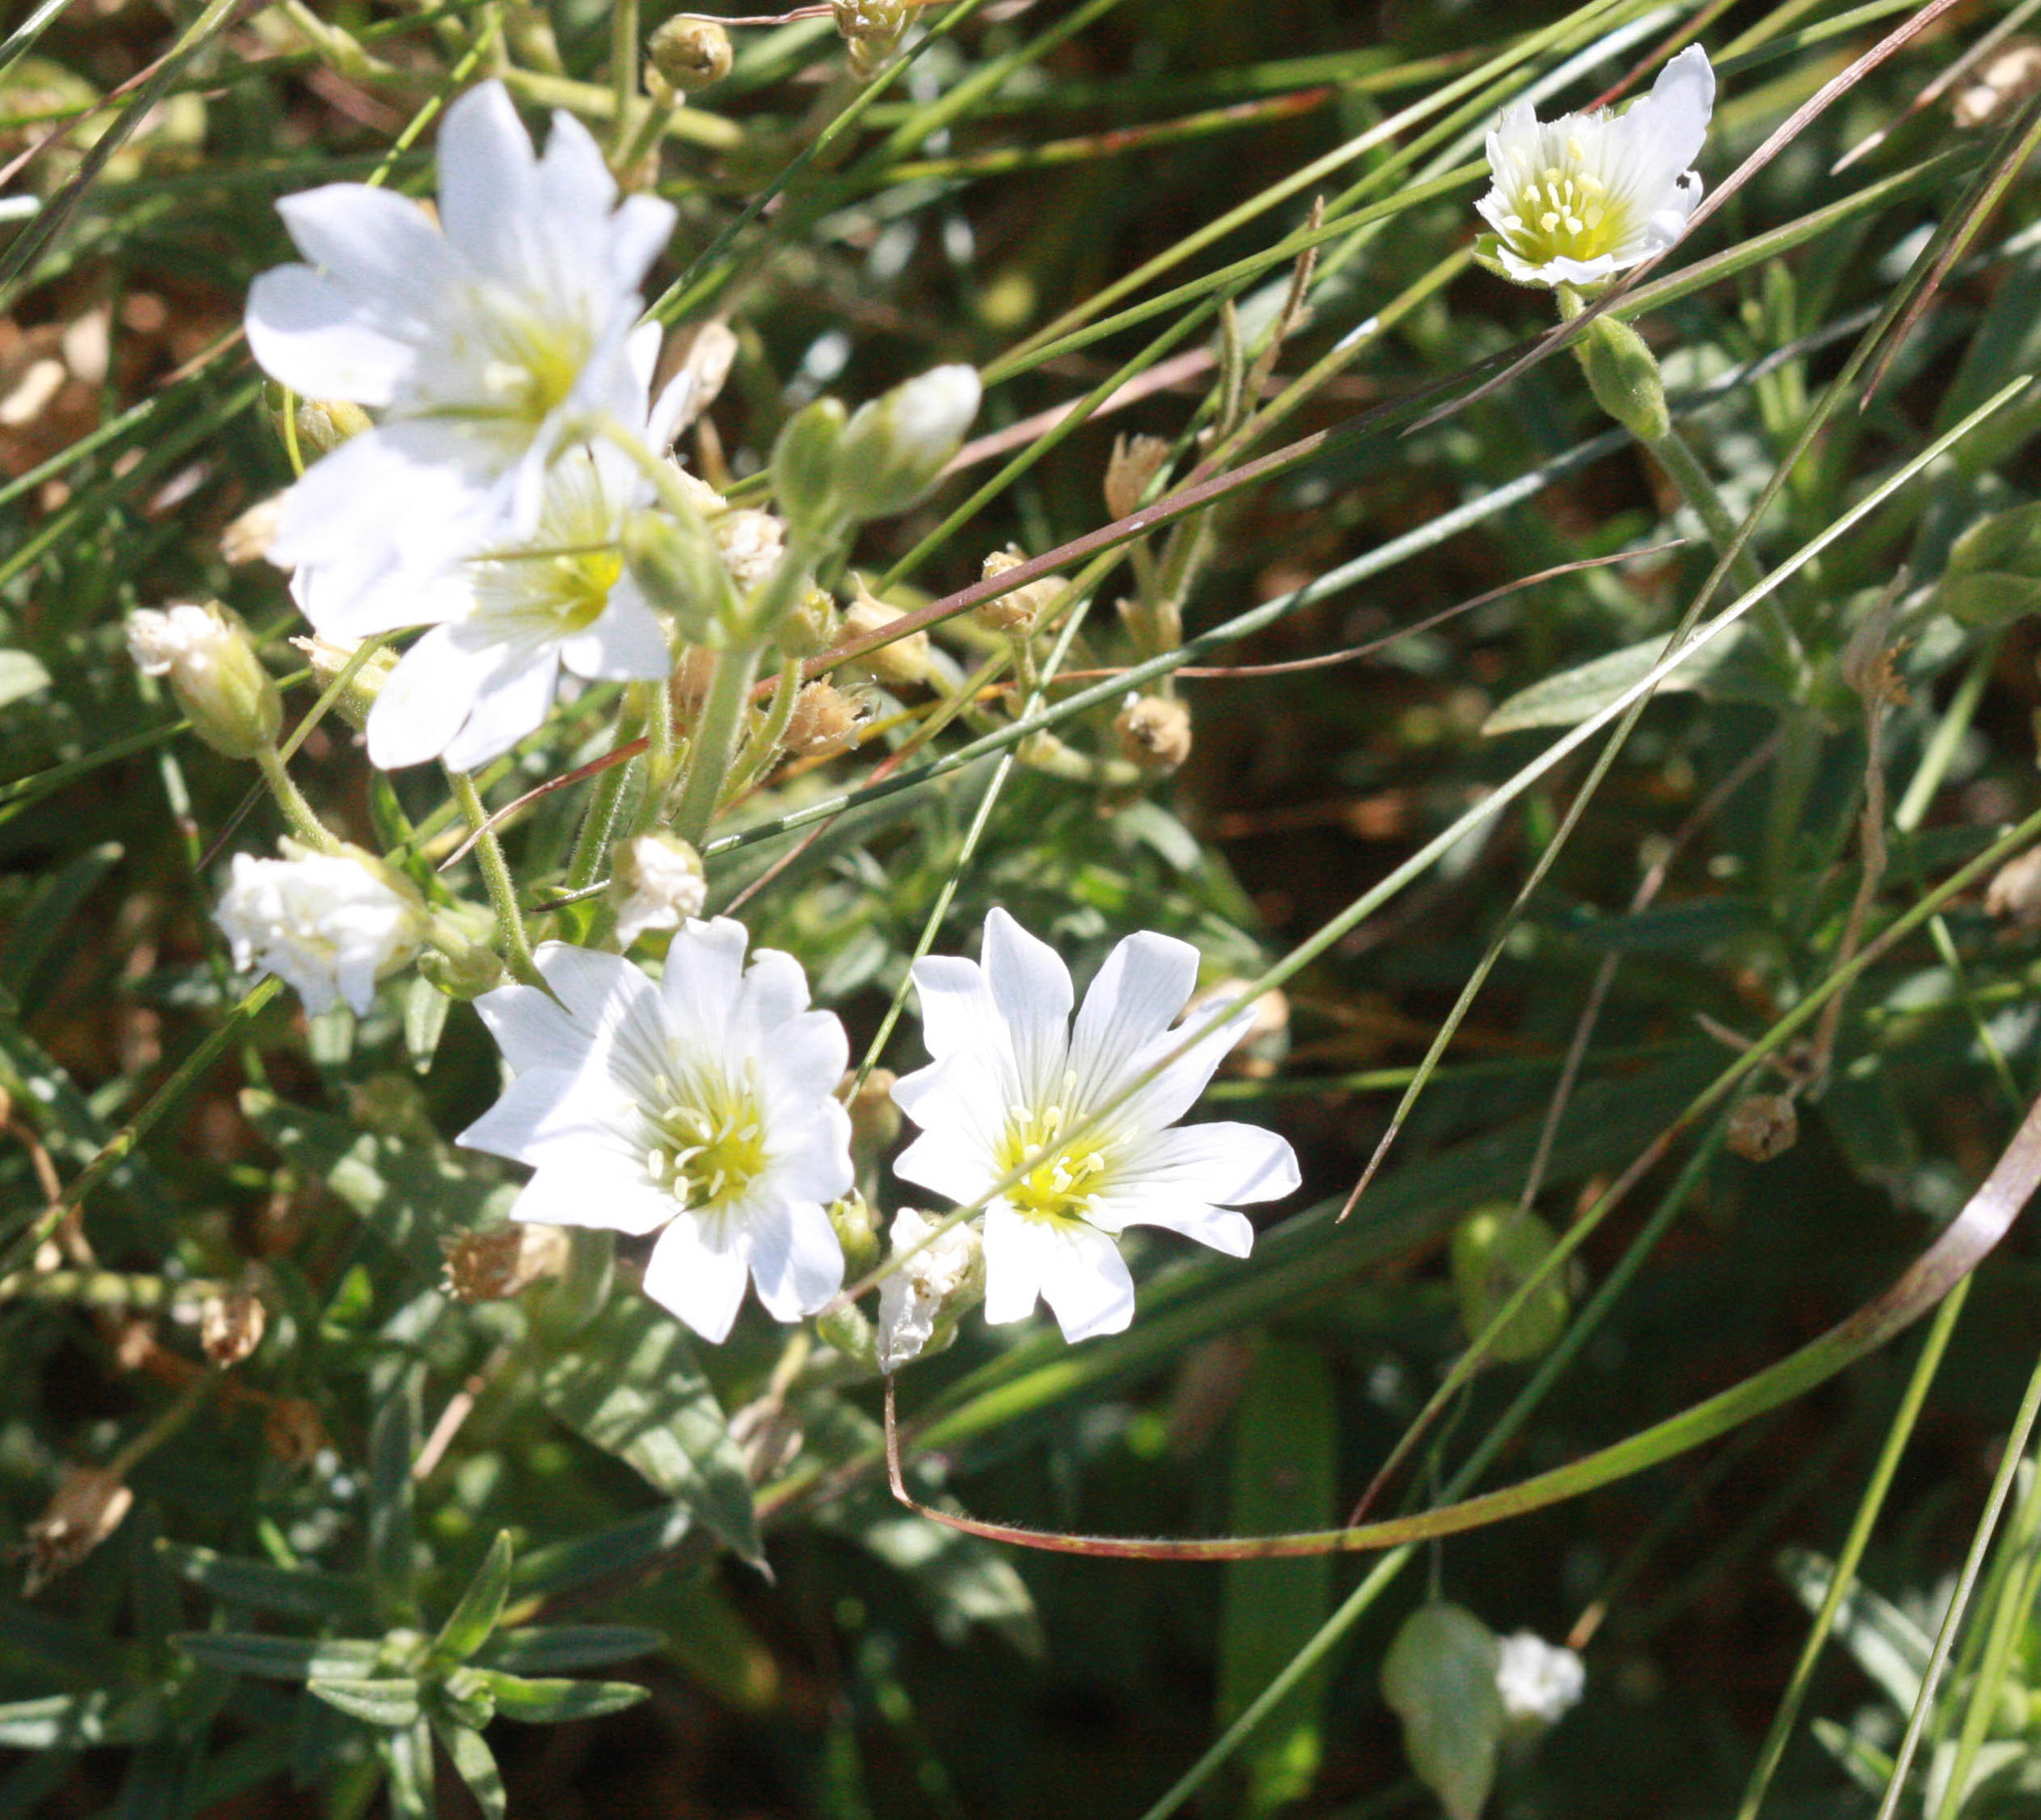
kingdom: Plantae
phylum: Tracheophyta
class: Magnoliopsida
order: Caryophyllales
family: Caryophyllaceae
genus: Cerastium
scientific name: Cerastium arvense
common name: Field mouse-ear
